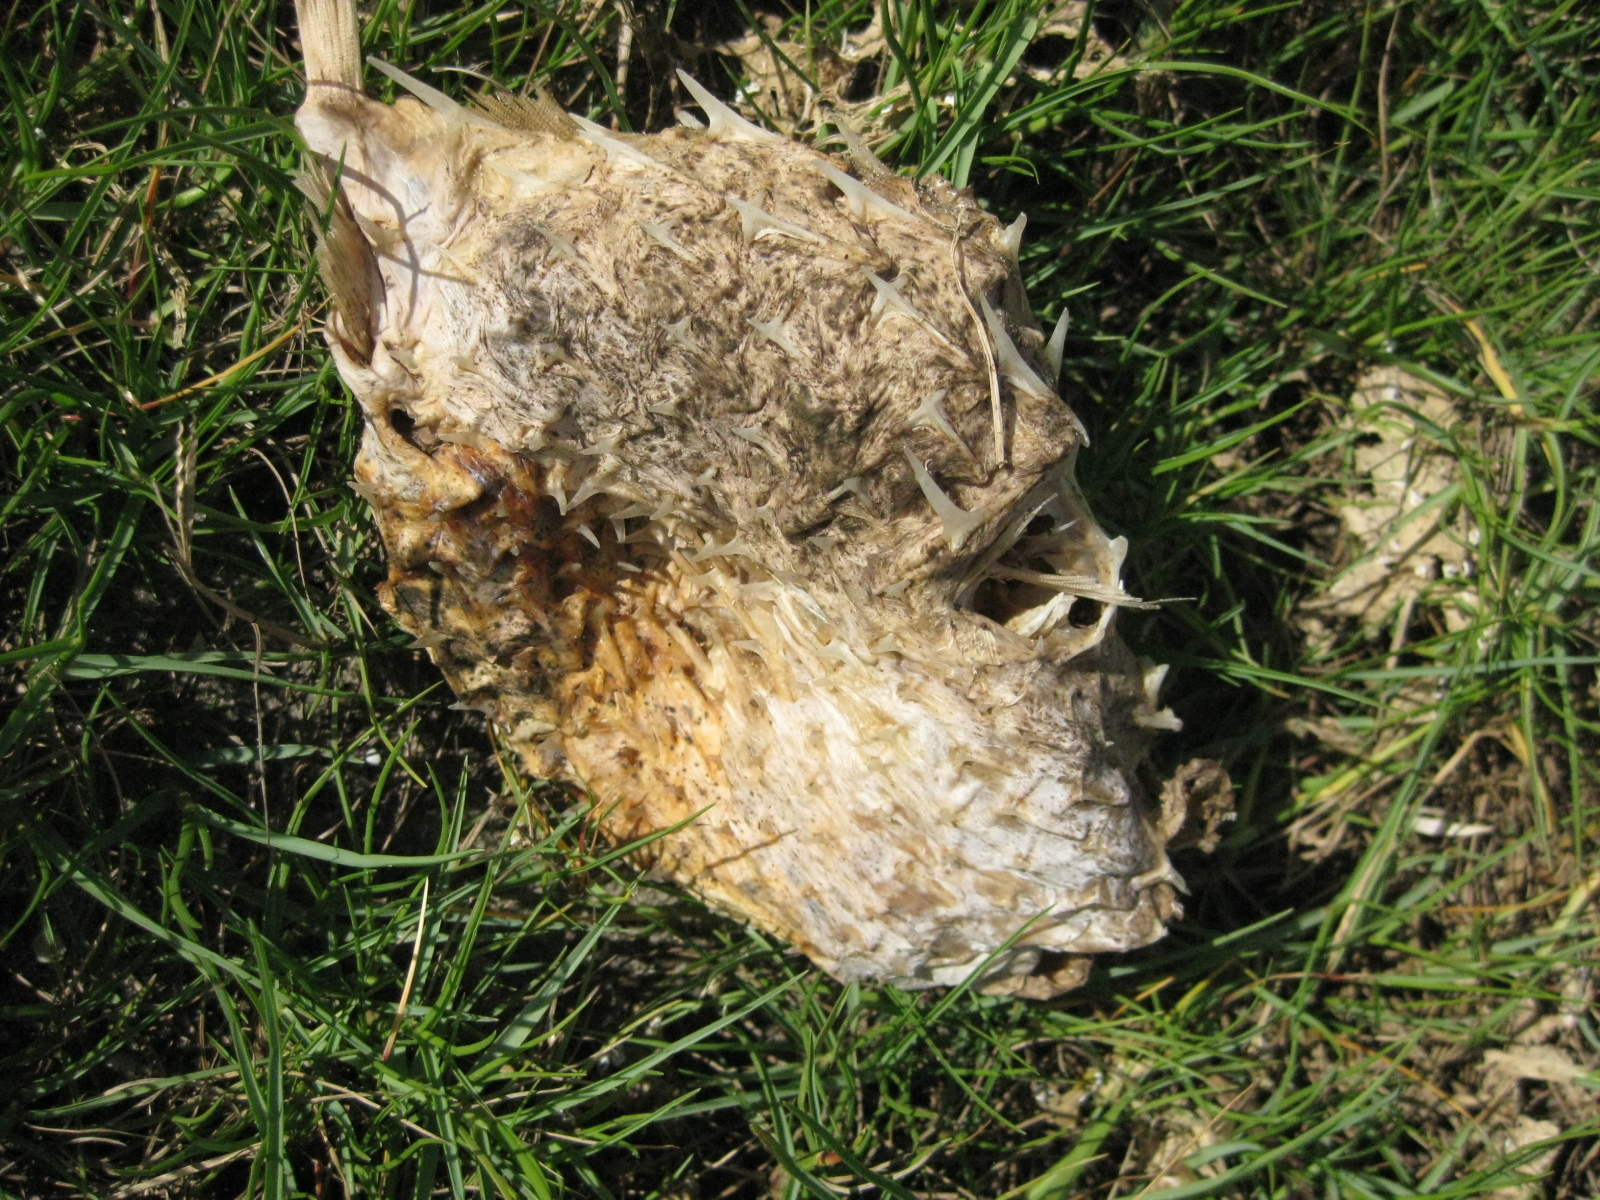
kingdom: Animalia
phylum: Chordata
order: Tetraodontiformes
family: Diodontidae
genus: Allomycterus
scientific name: Allomycterus pilatus
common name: No common name
